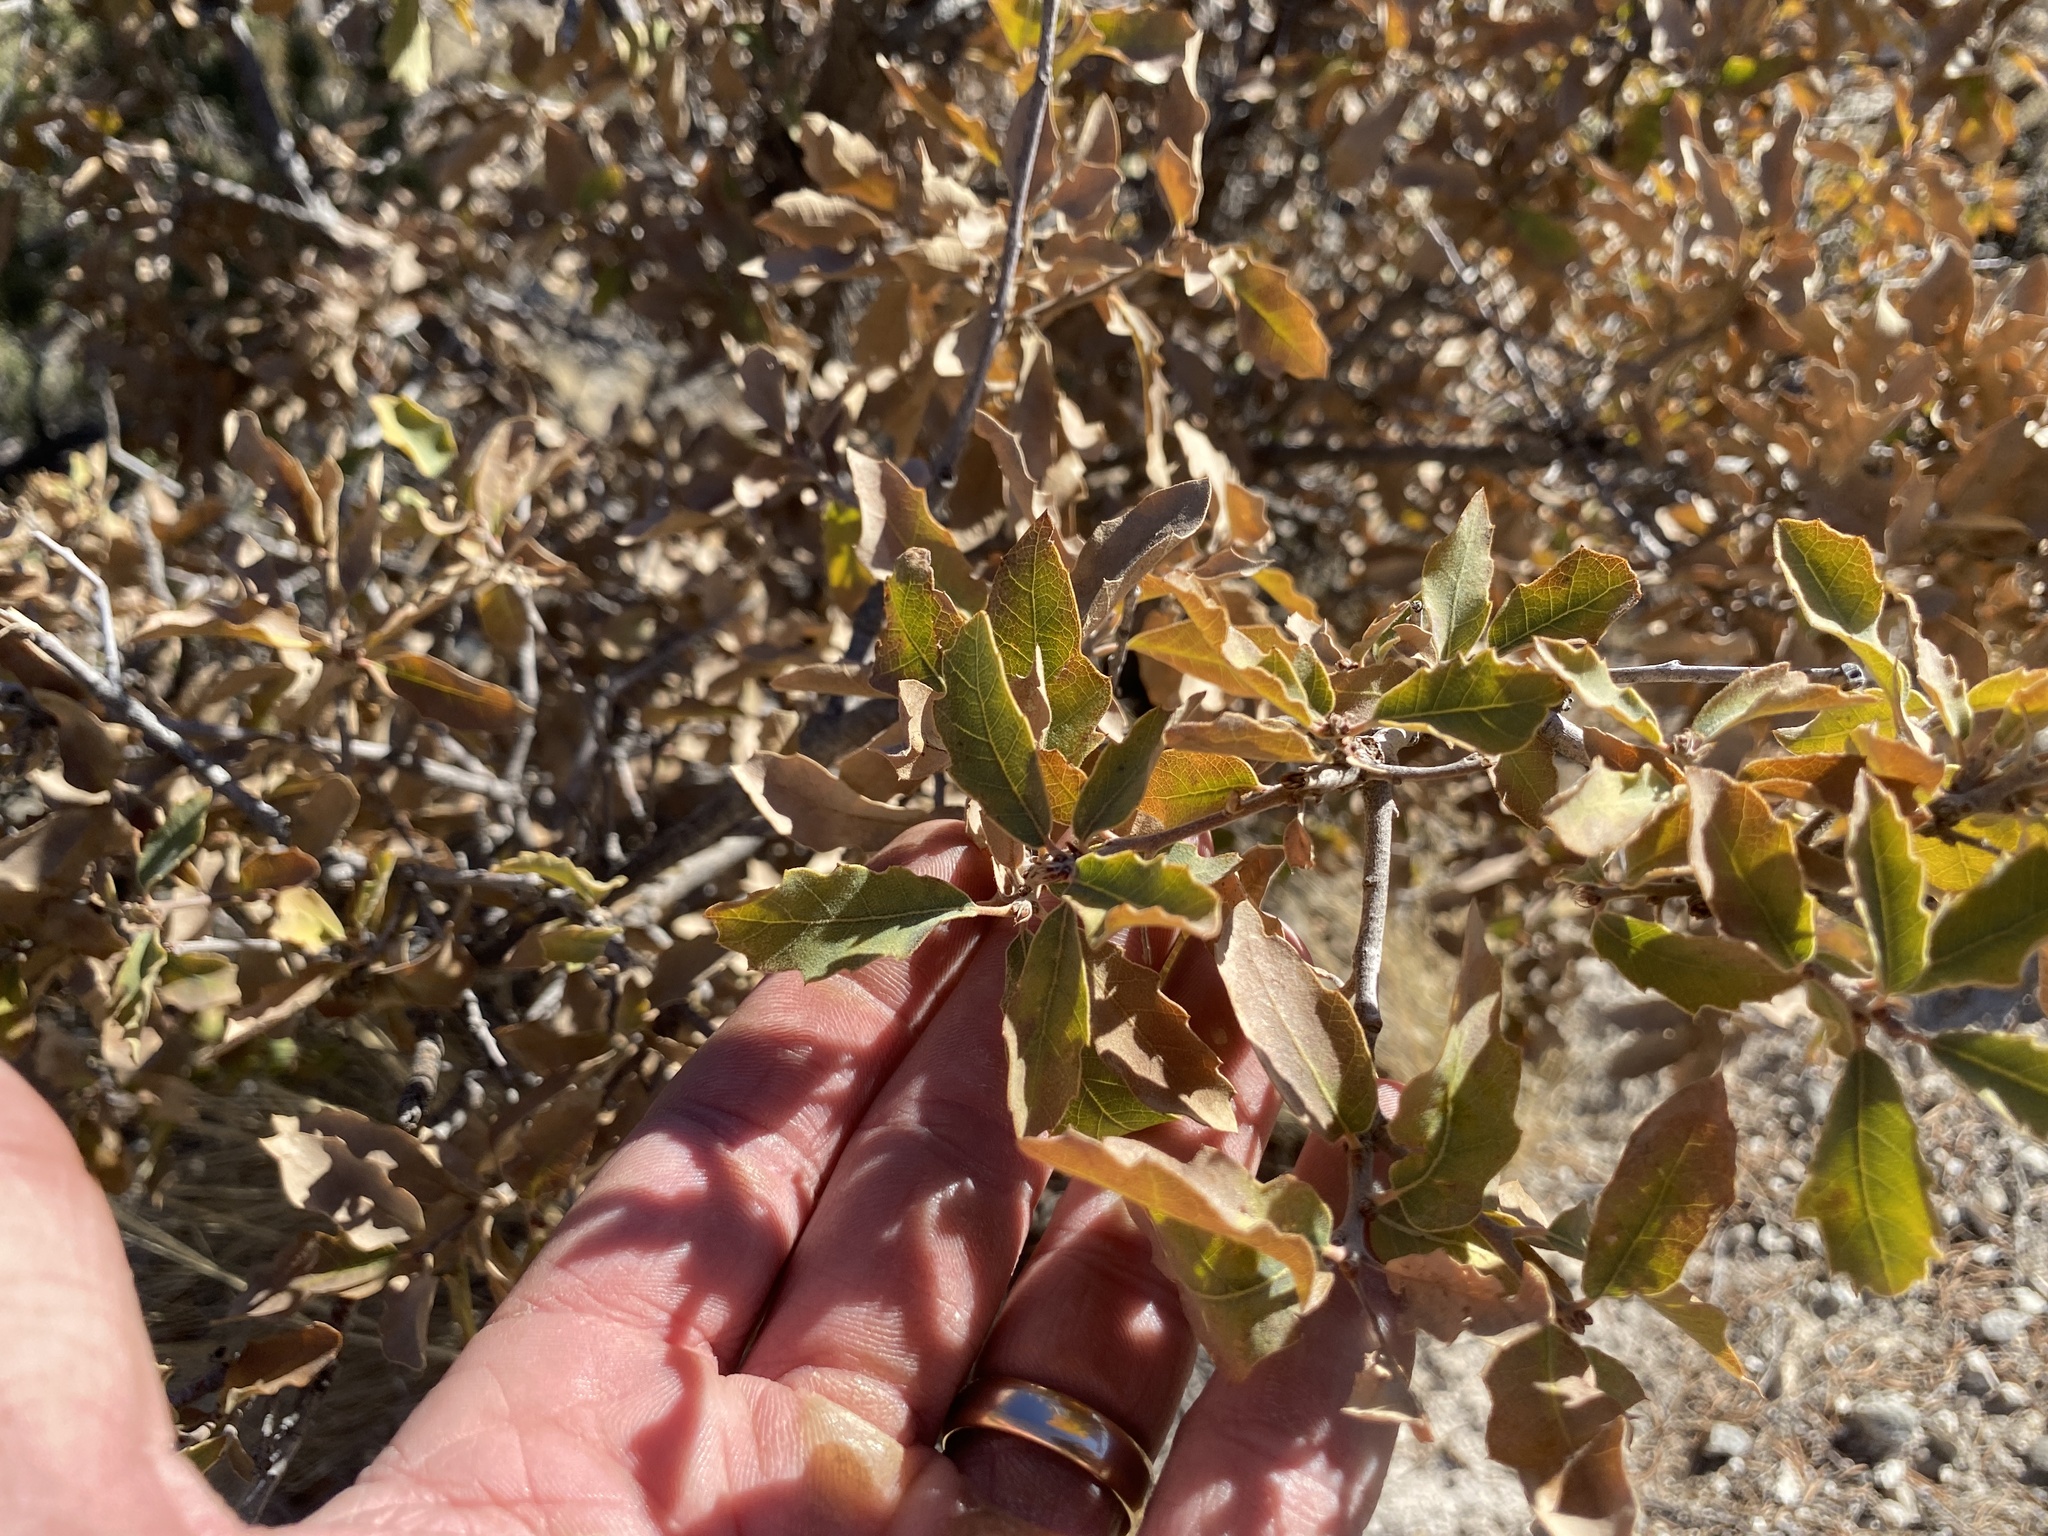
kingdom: Plantae
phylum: Tracheophyta
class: Magnoliopsida
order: Fagales
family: Fagaceae
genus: Quercus
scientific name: Quercus undulata
